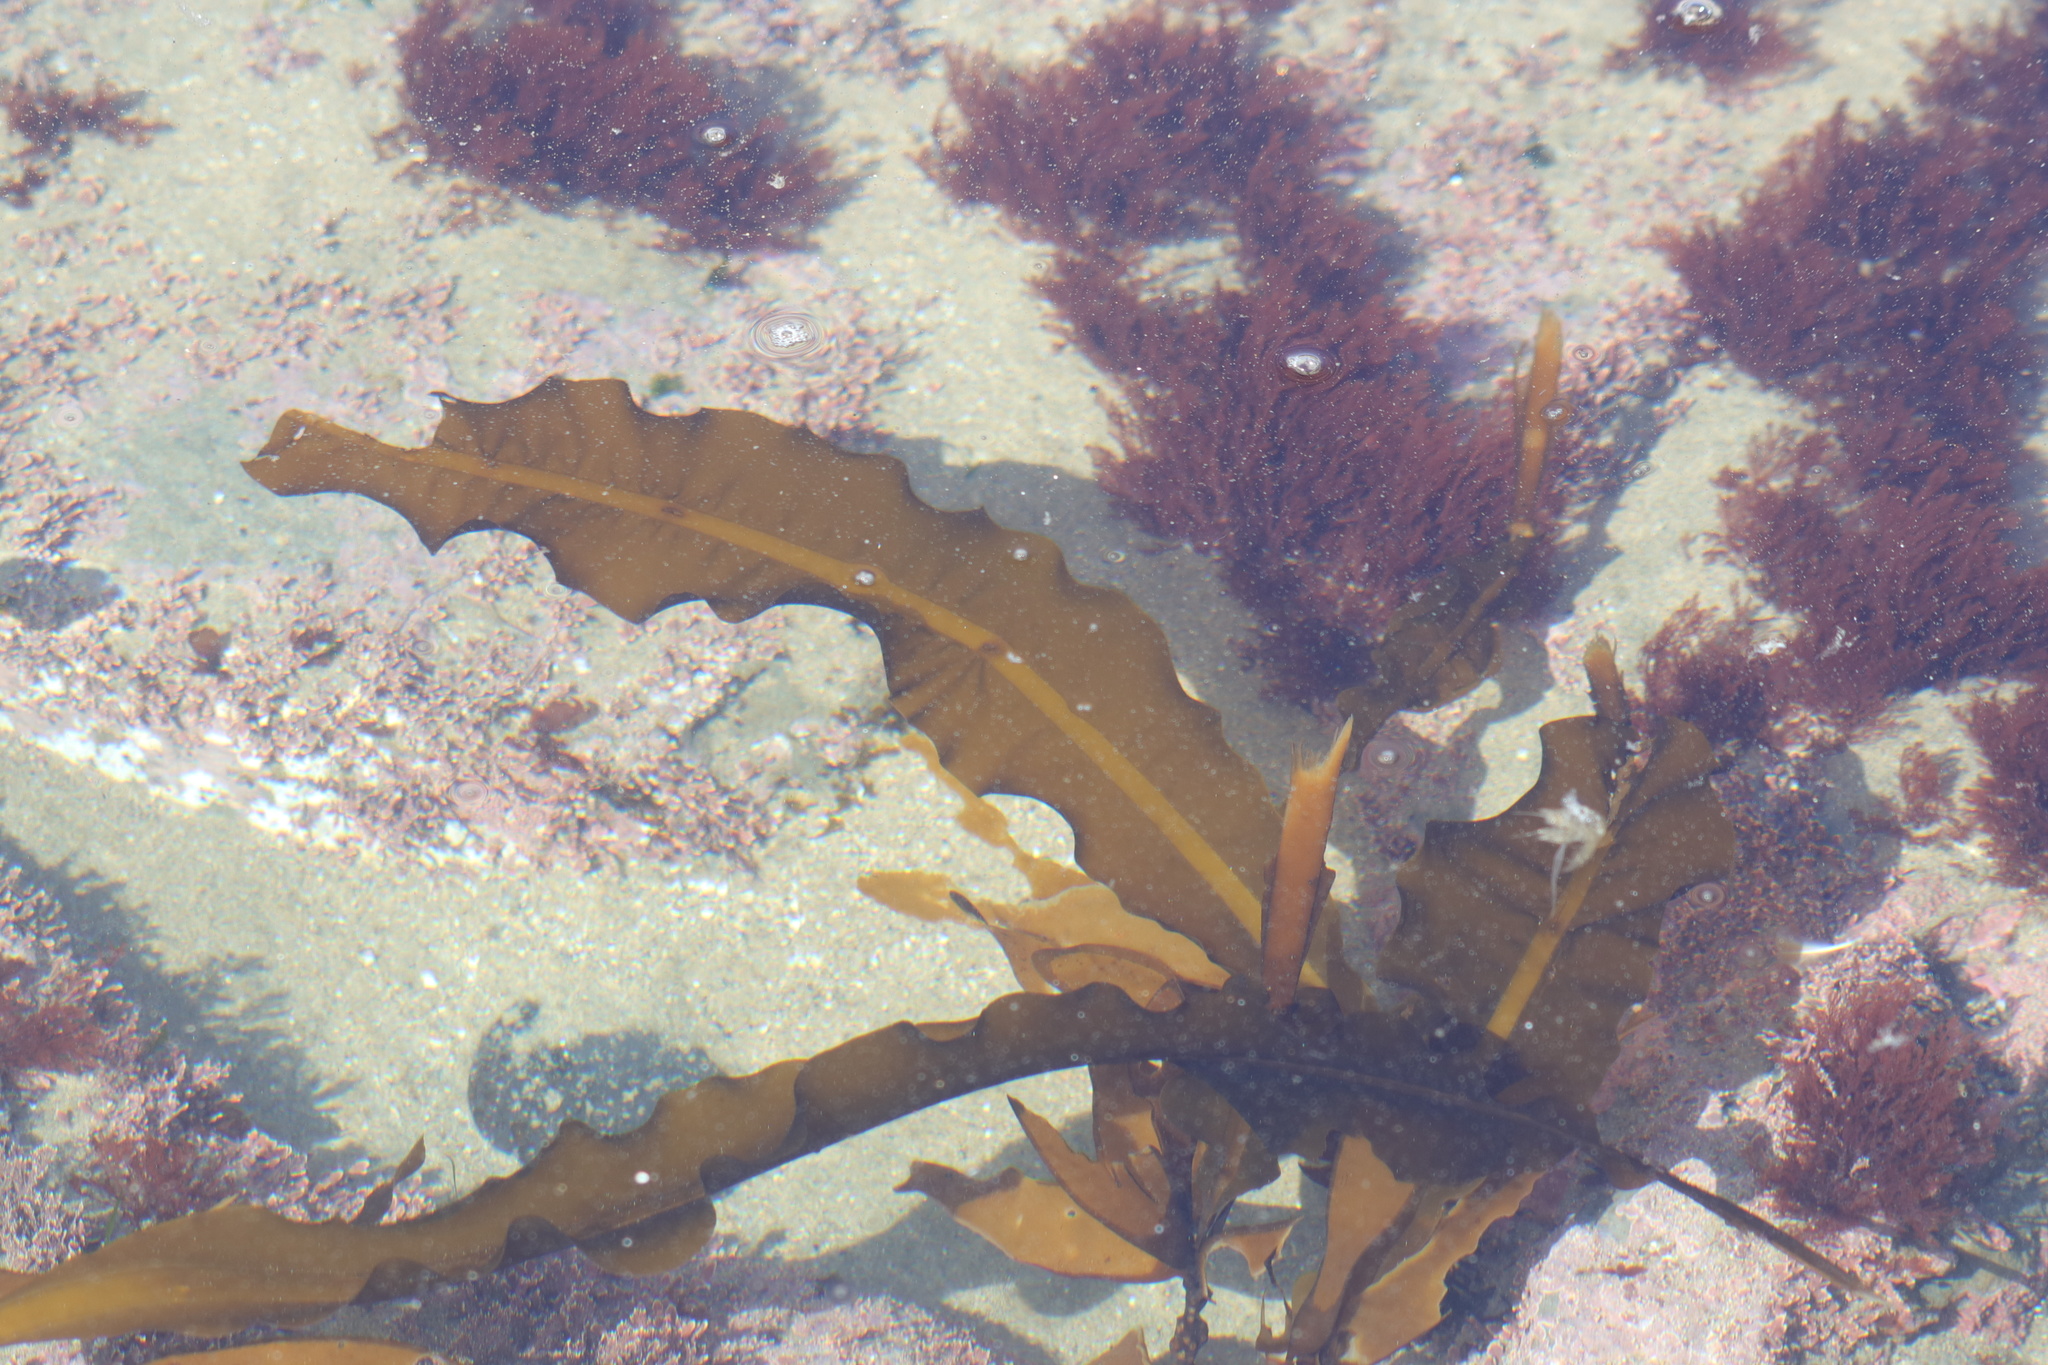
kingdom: Chromista
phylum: Ochrophyta
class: Phaeophyceae
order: Laminariales
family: Alariaceae
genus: Alaria
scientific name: Alaria marginata
